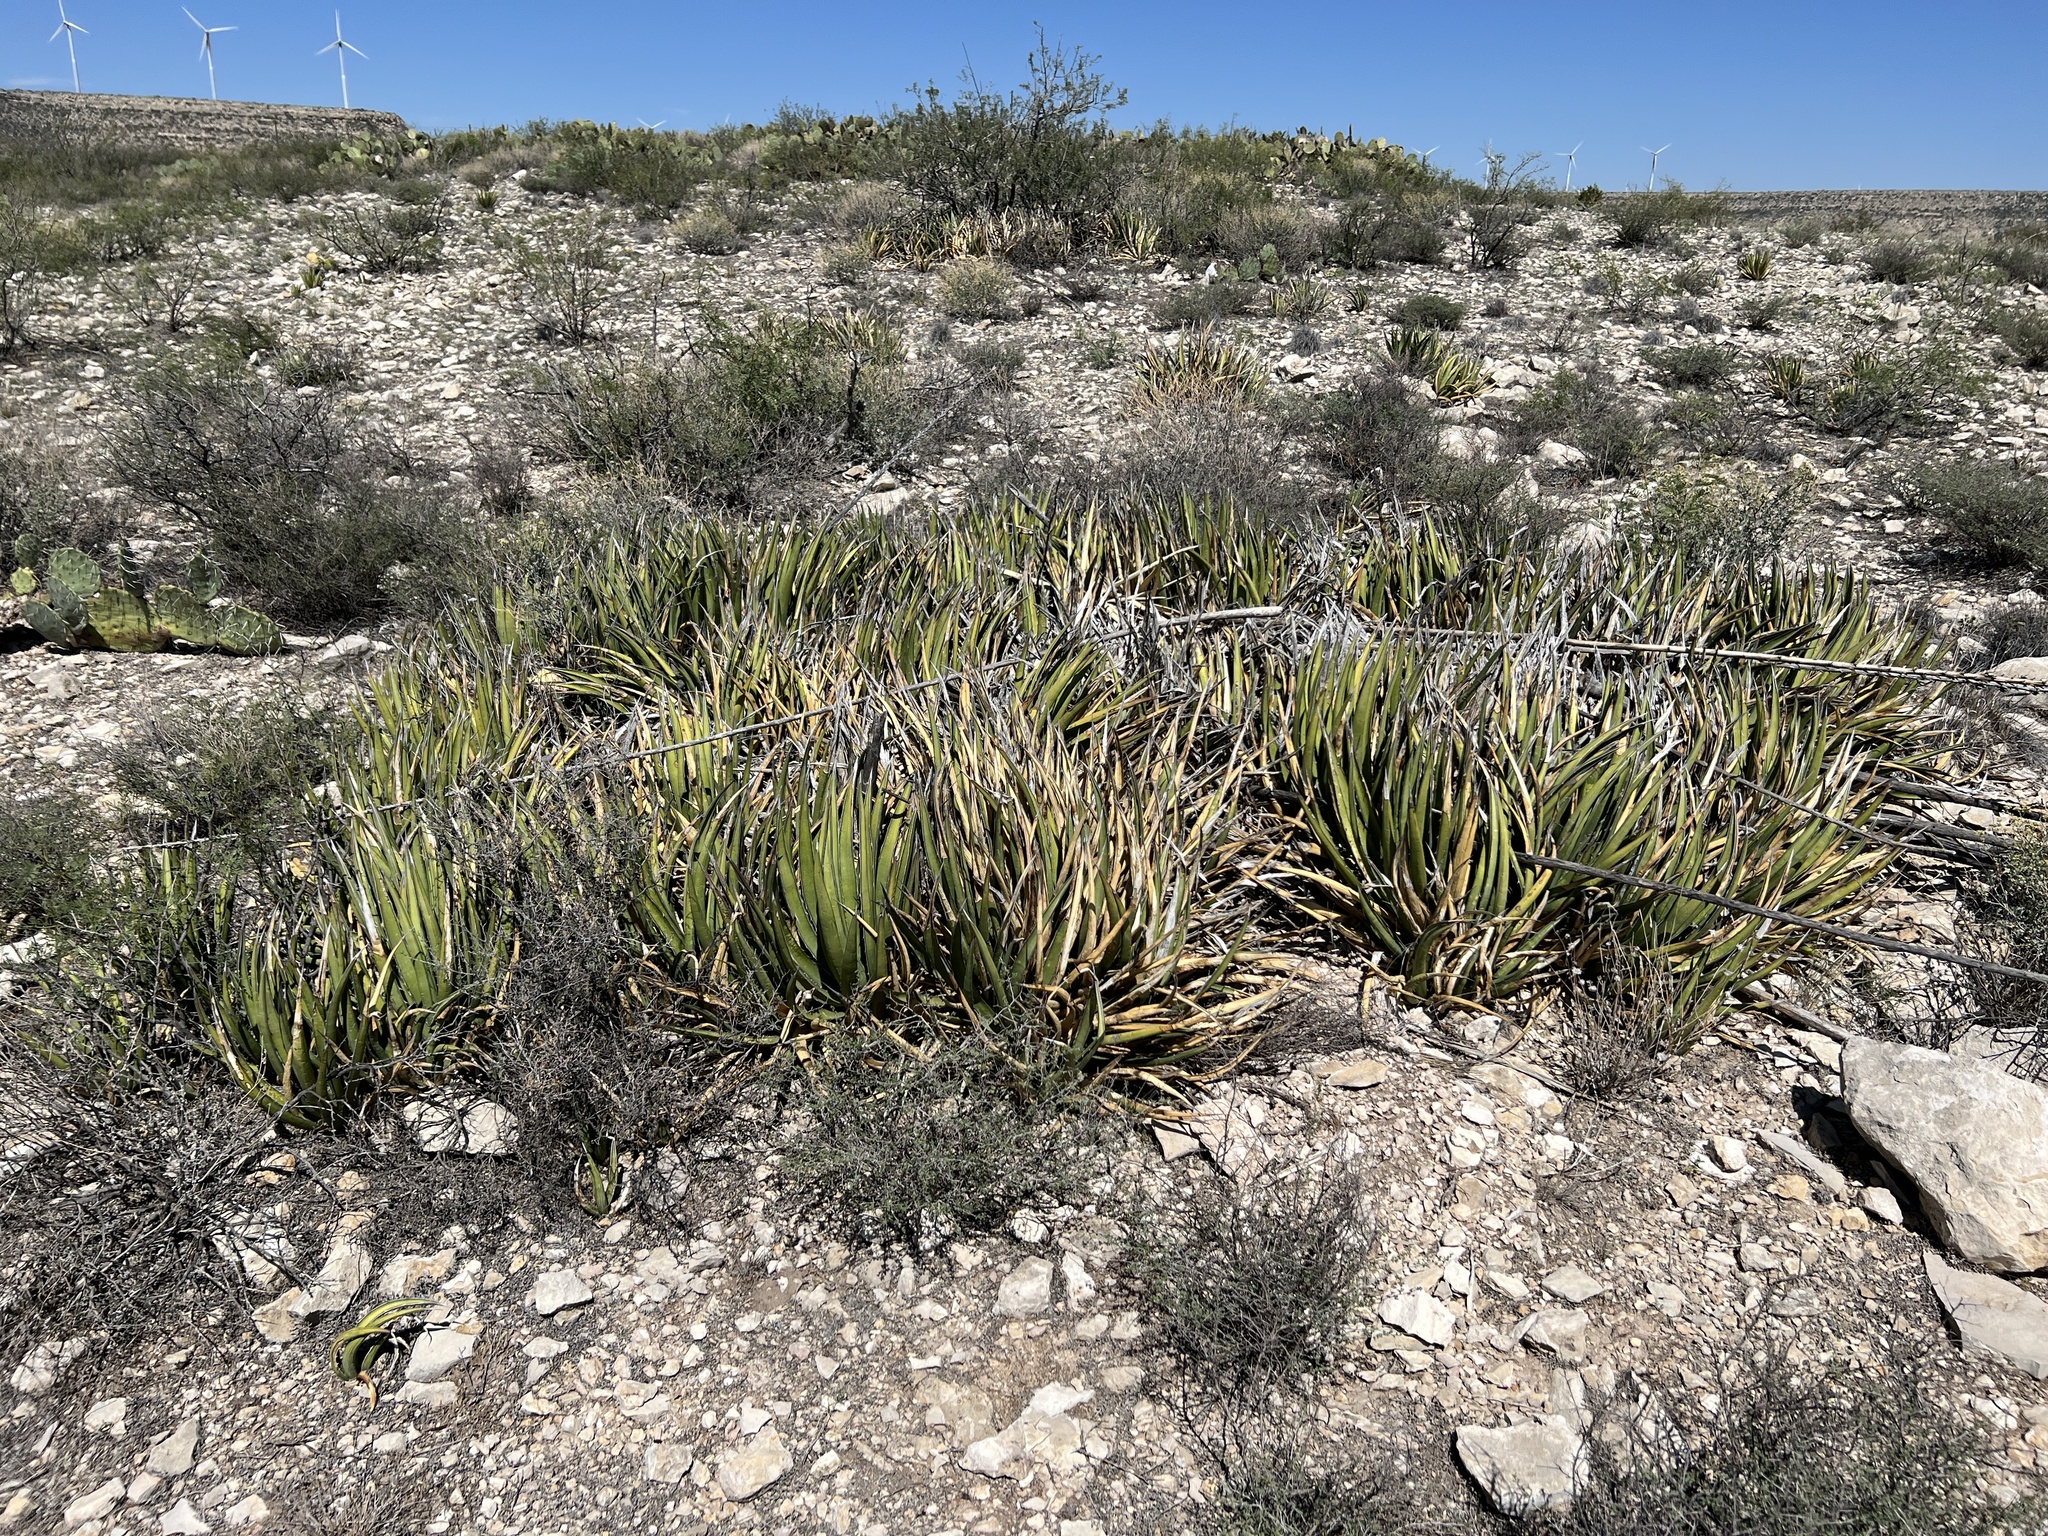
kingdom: Plantae
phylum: Tracheophyta
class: Liliopsida
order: Asparagales
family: Asparagaceae
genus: Agave
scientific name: Agave lechuguilla
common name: Lecheguilla agave
